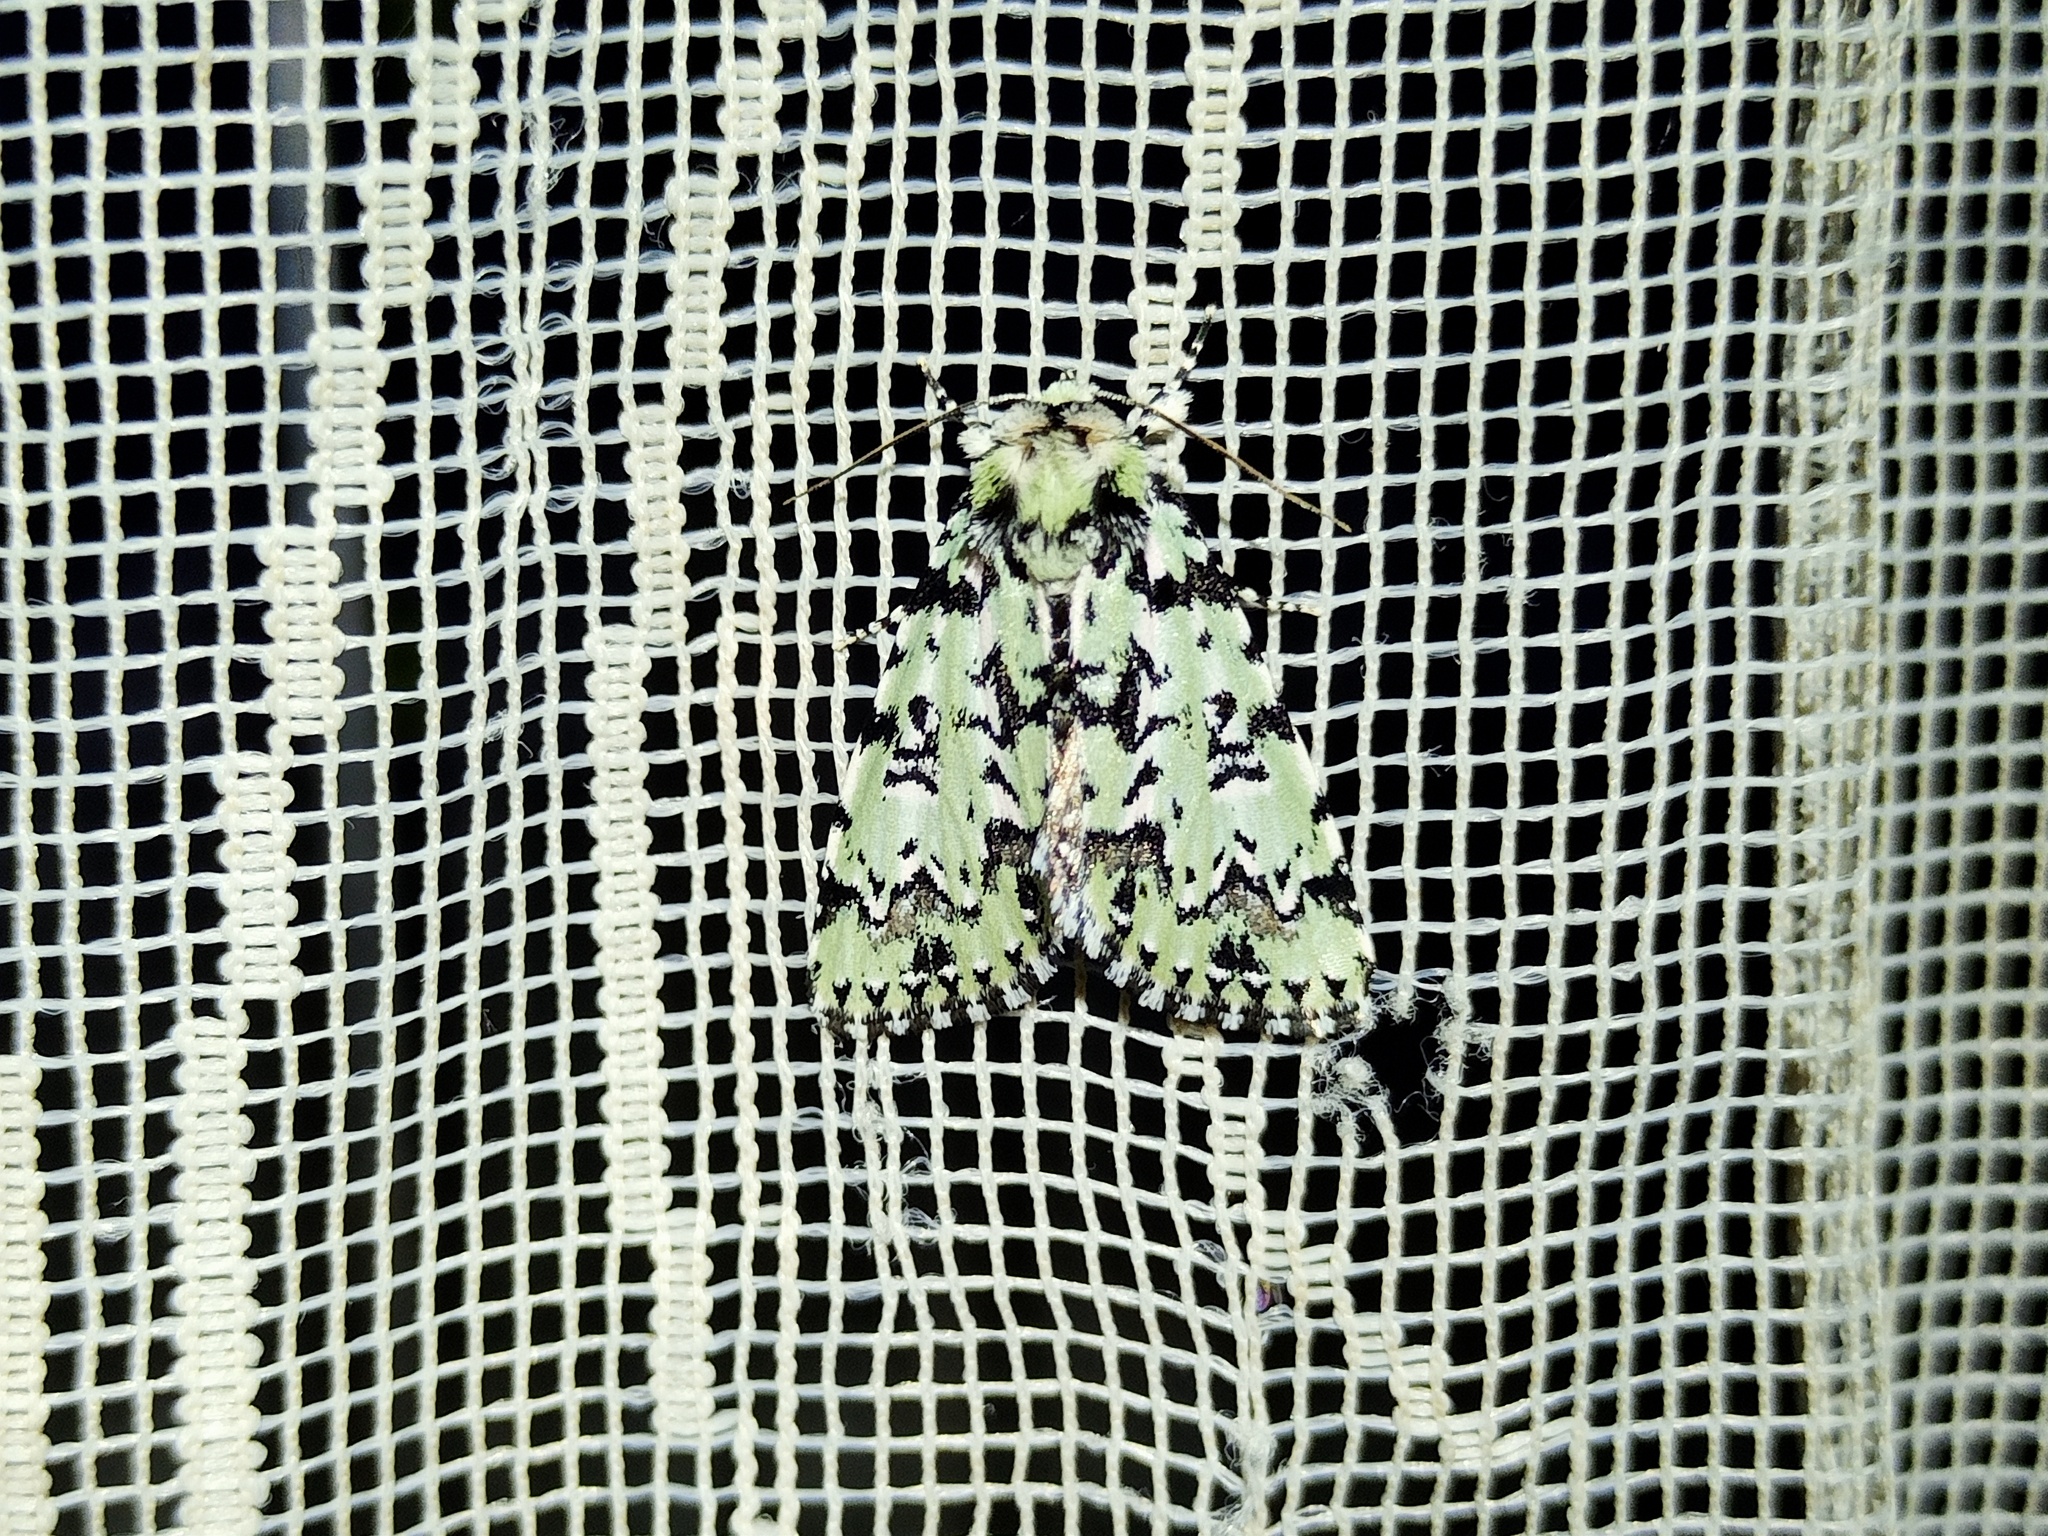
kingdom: Animalia
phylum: Arthropoda
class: Insecta
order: Lepidoptera
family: Noctuidae
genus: Moma
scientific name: Moma alpium
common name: Scarce merveille du jour
